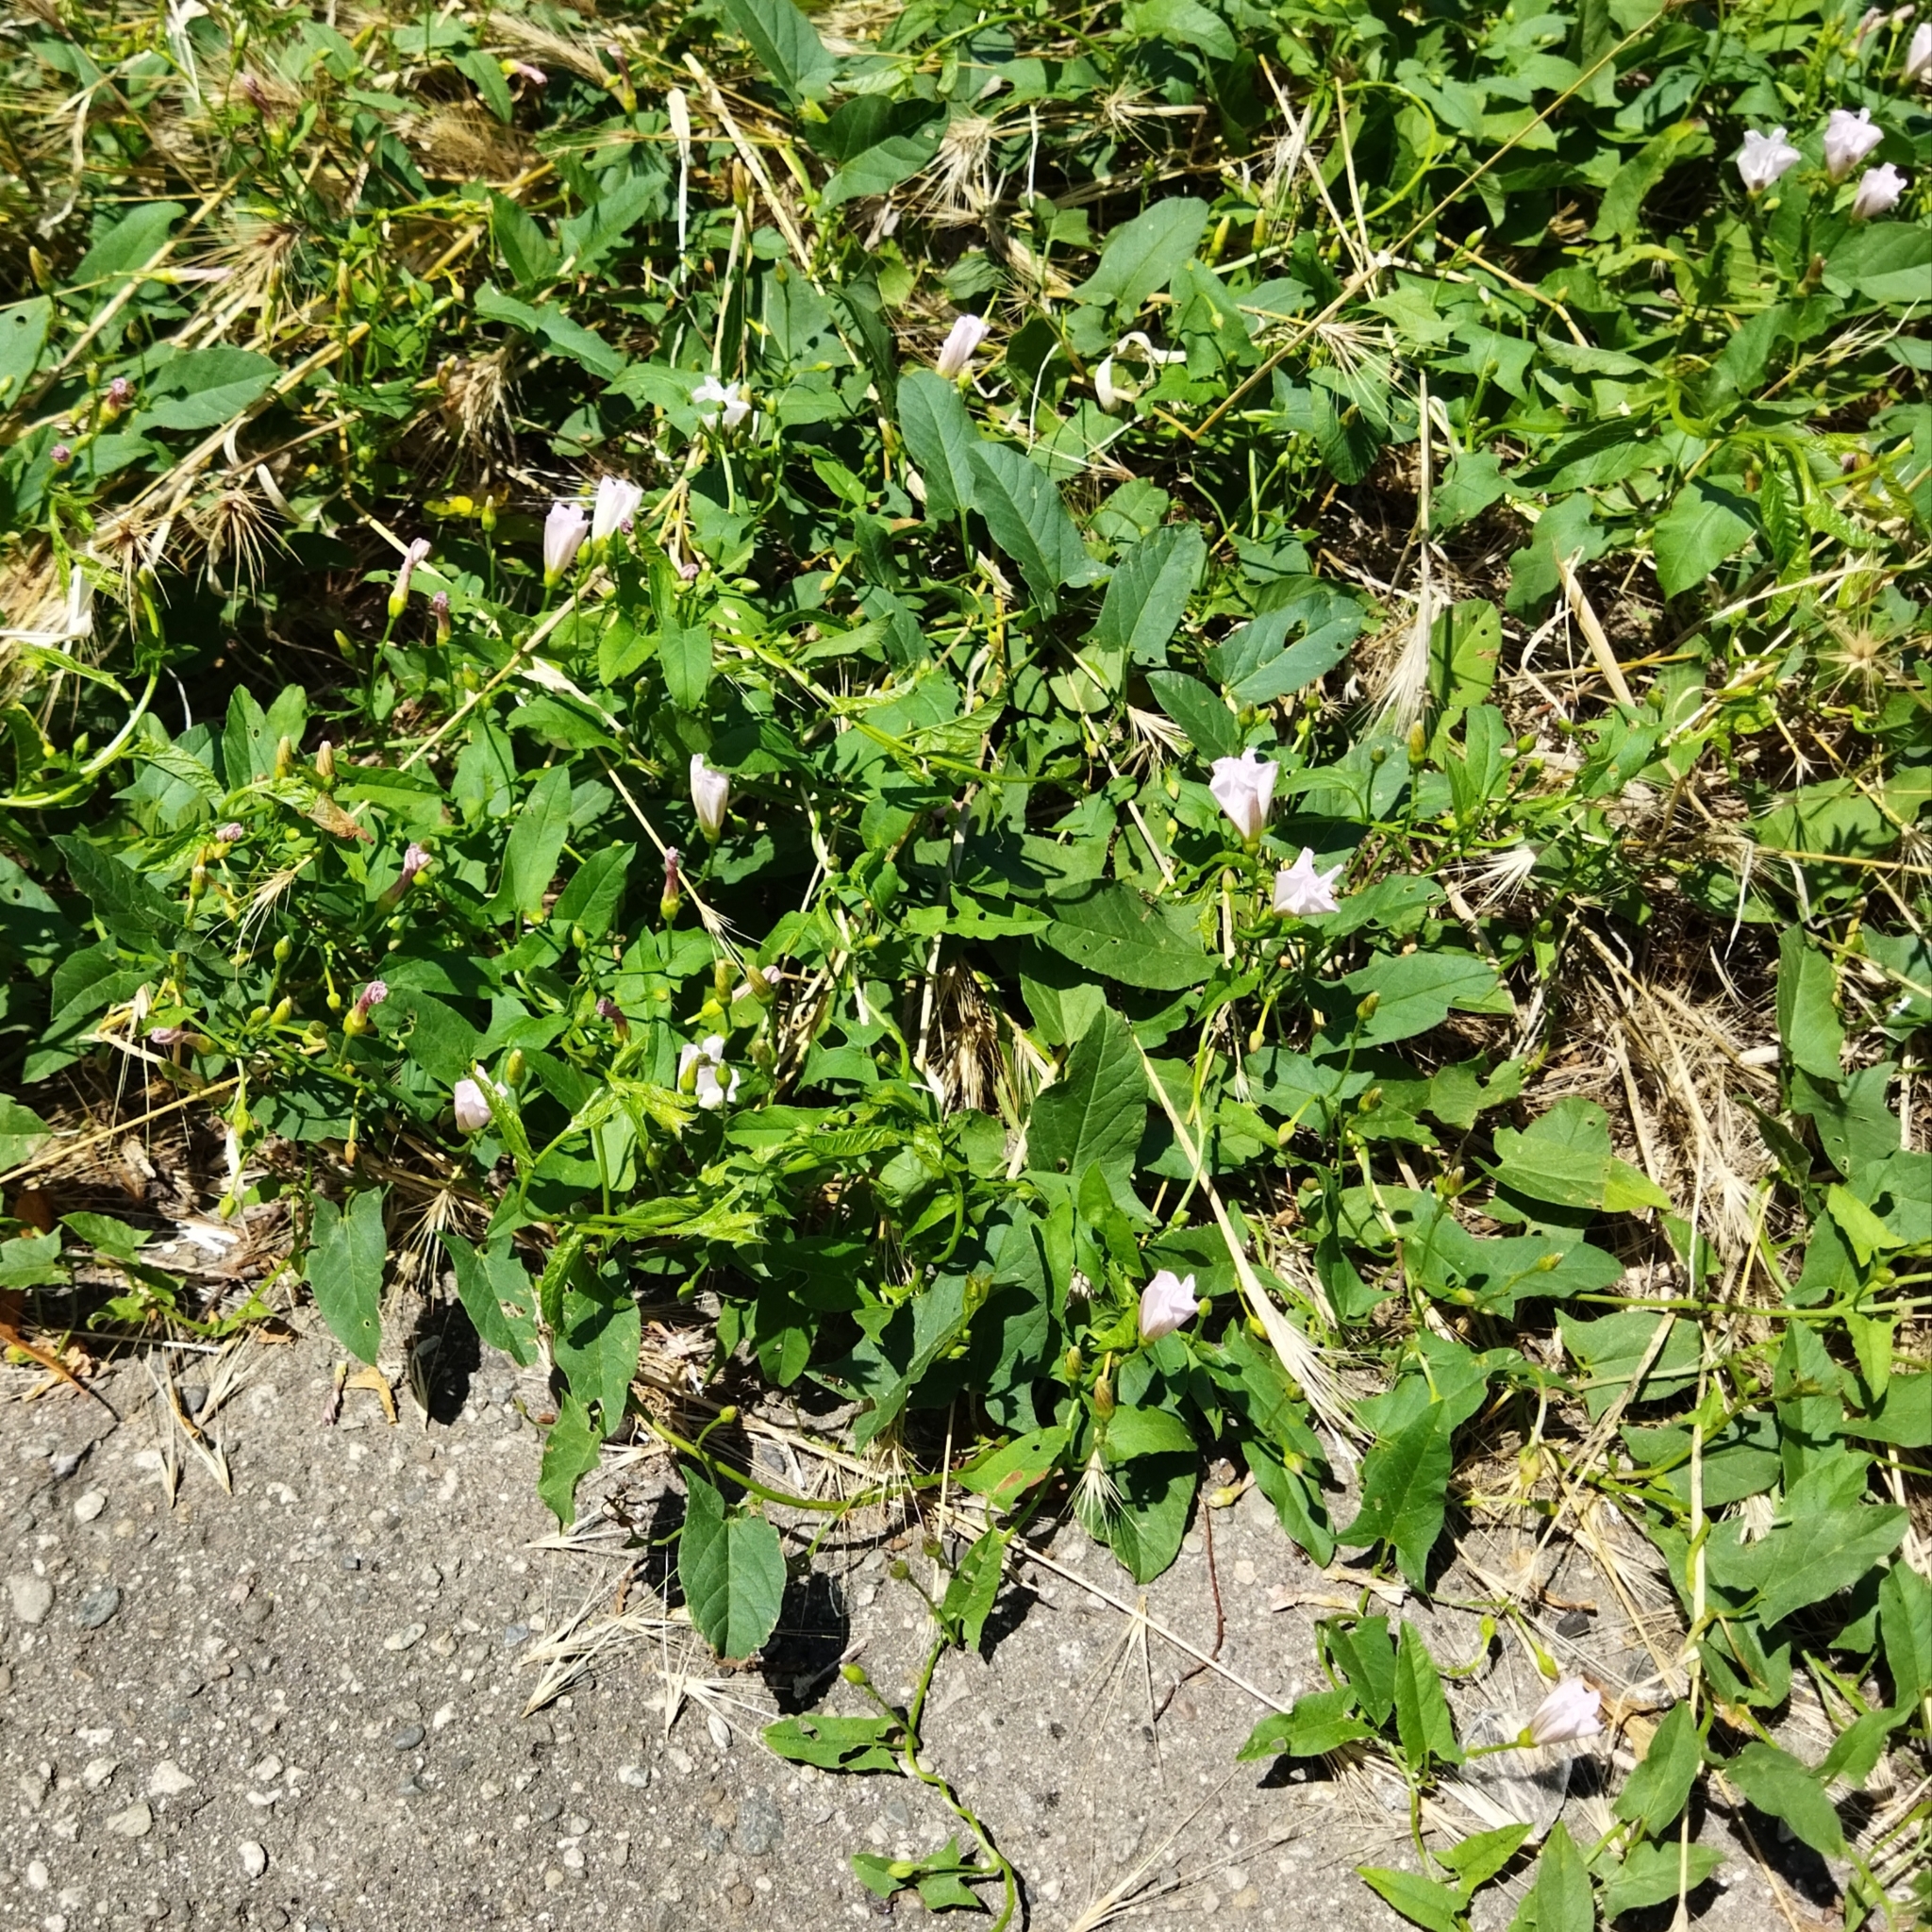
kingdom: Plantae
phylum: Tracheophyta
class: Magnoliopsida
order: Solanales
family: Convolvulaceae
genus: Convolvulus
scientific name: Convolvulus arvensis
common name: Field bindweed
